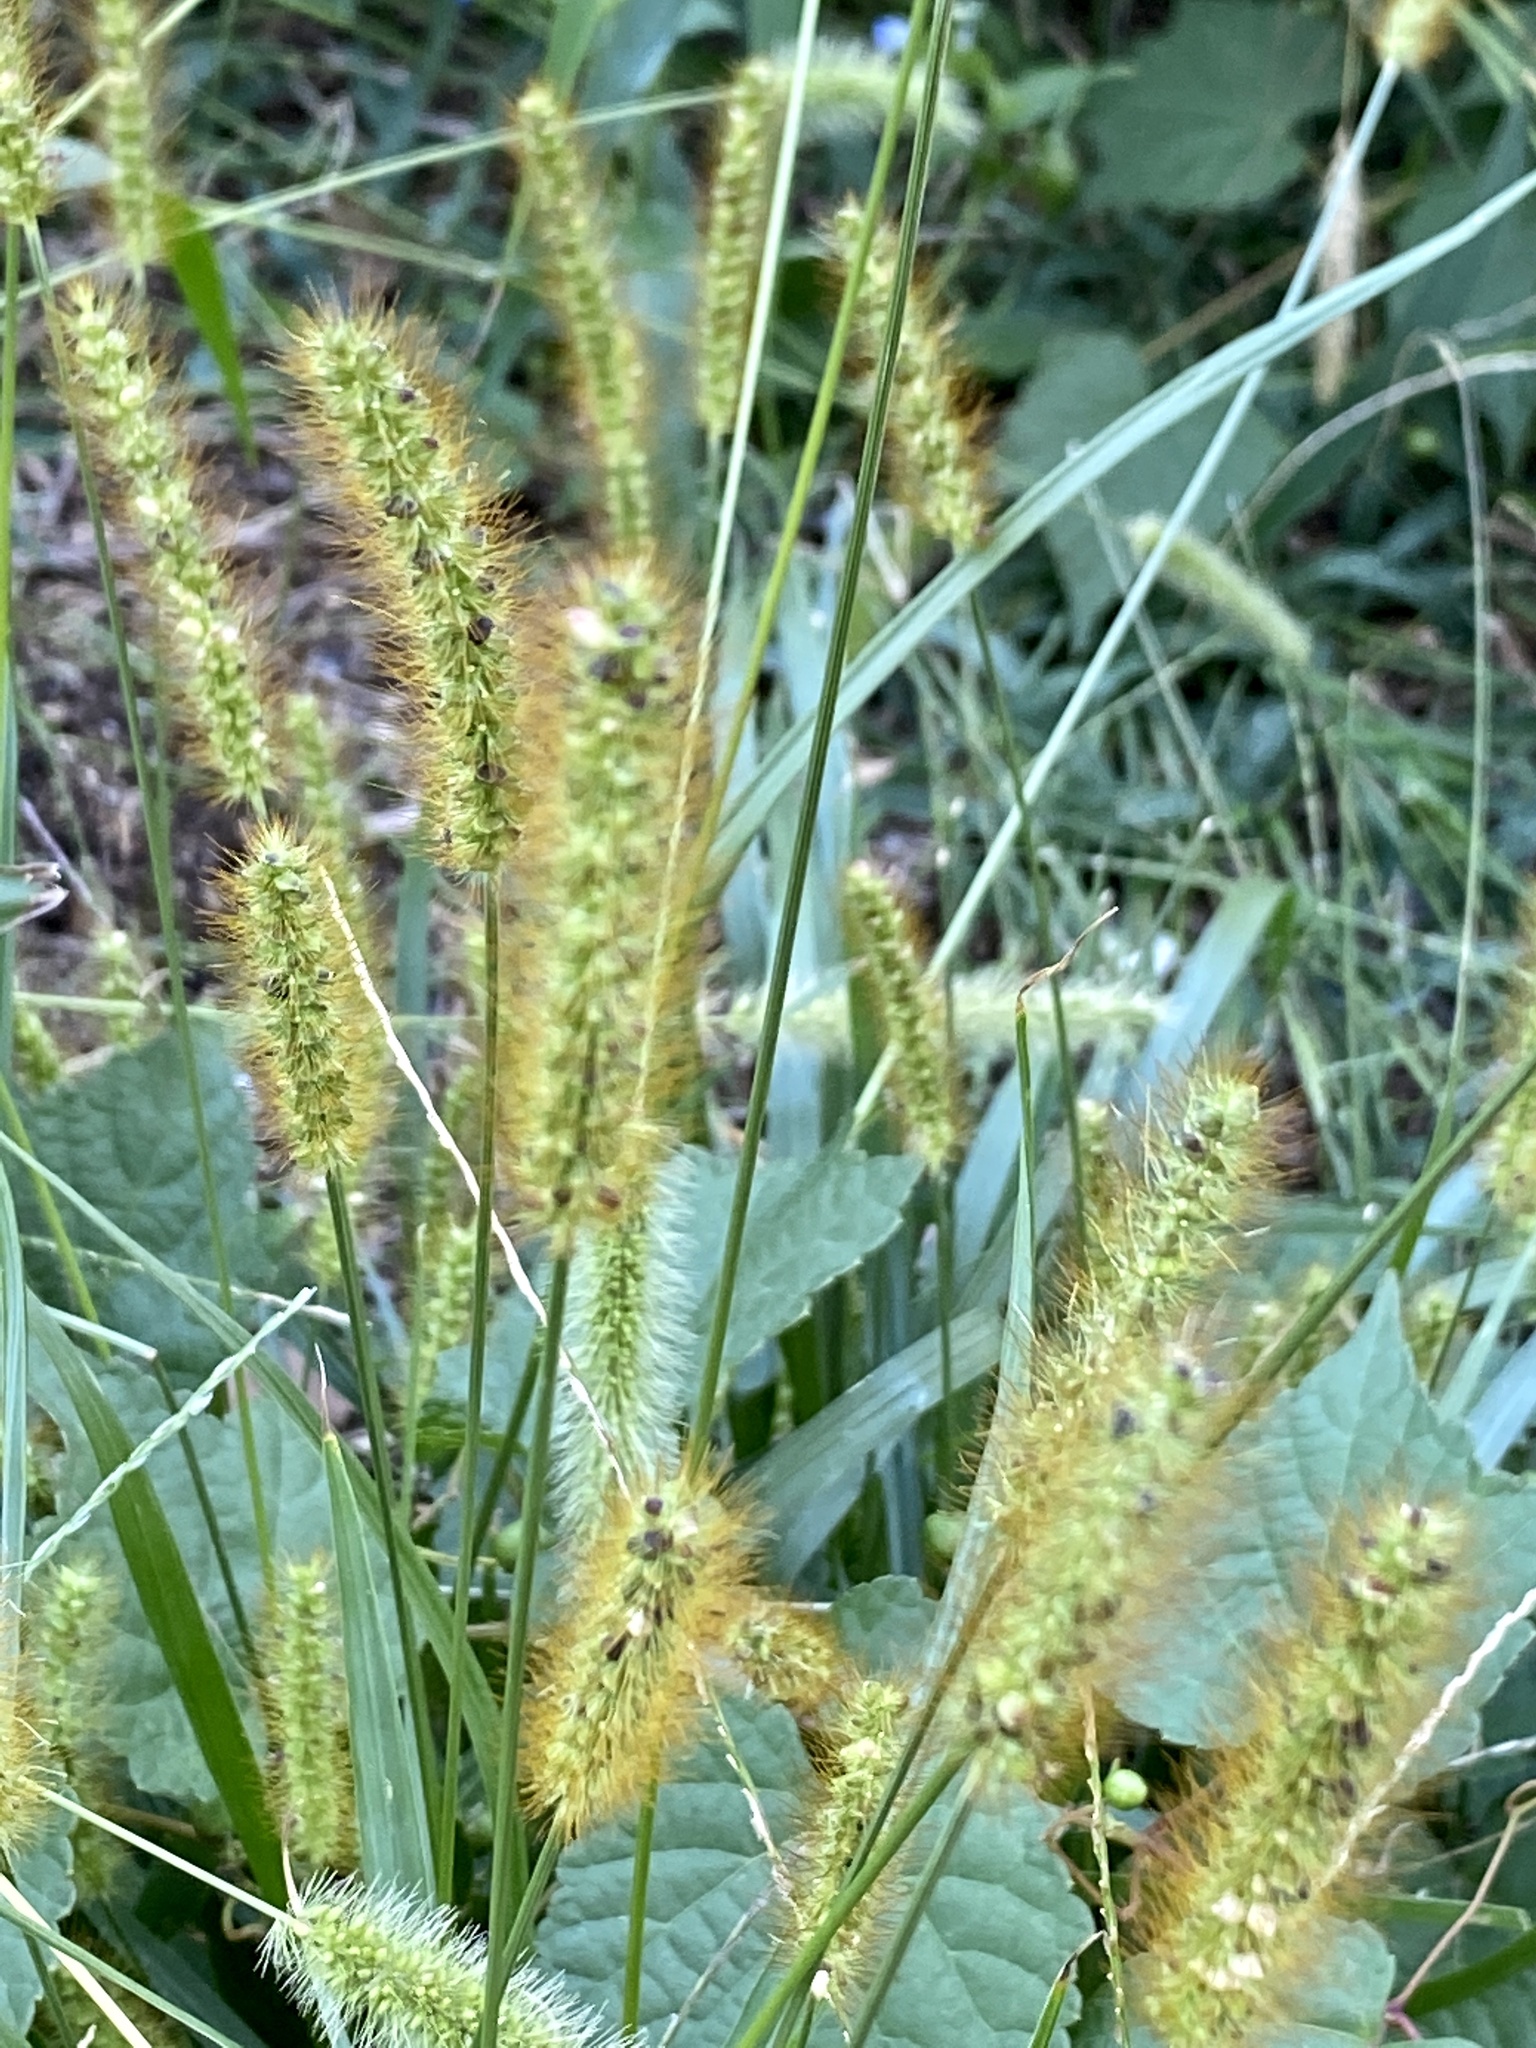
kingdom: Plantae
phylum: Tracheophyta
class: Liliopsida
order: Poales
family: Poaceae
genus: Setaria
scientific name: Setaria pumila
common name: Yellow bristle-grass
